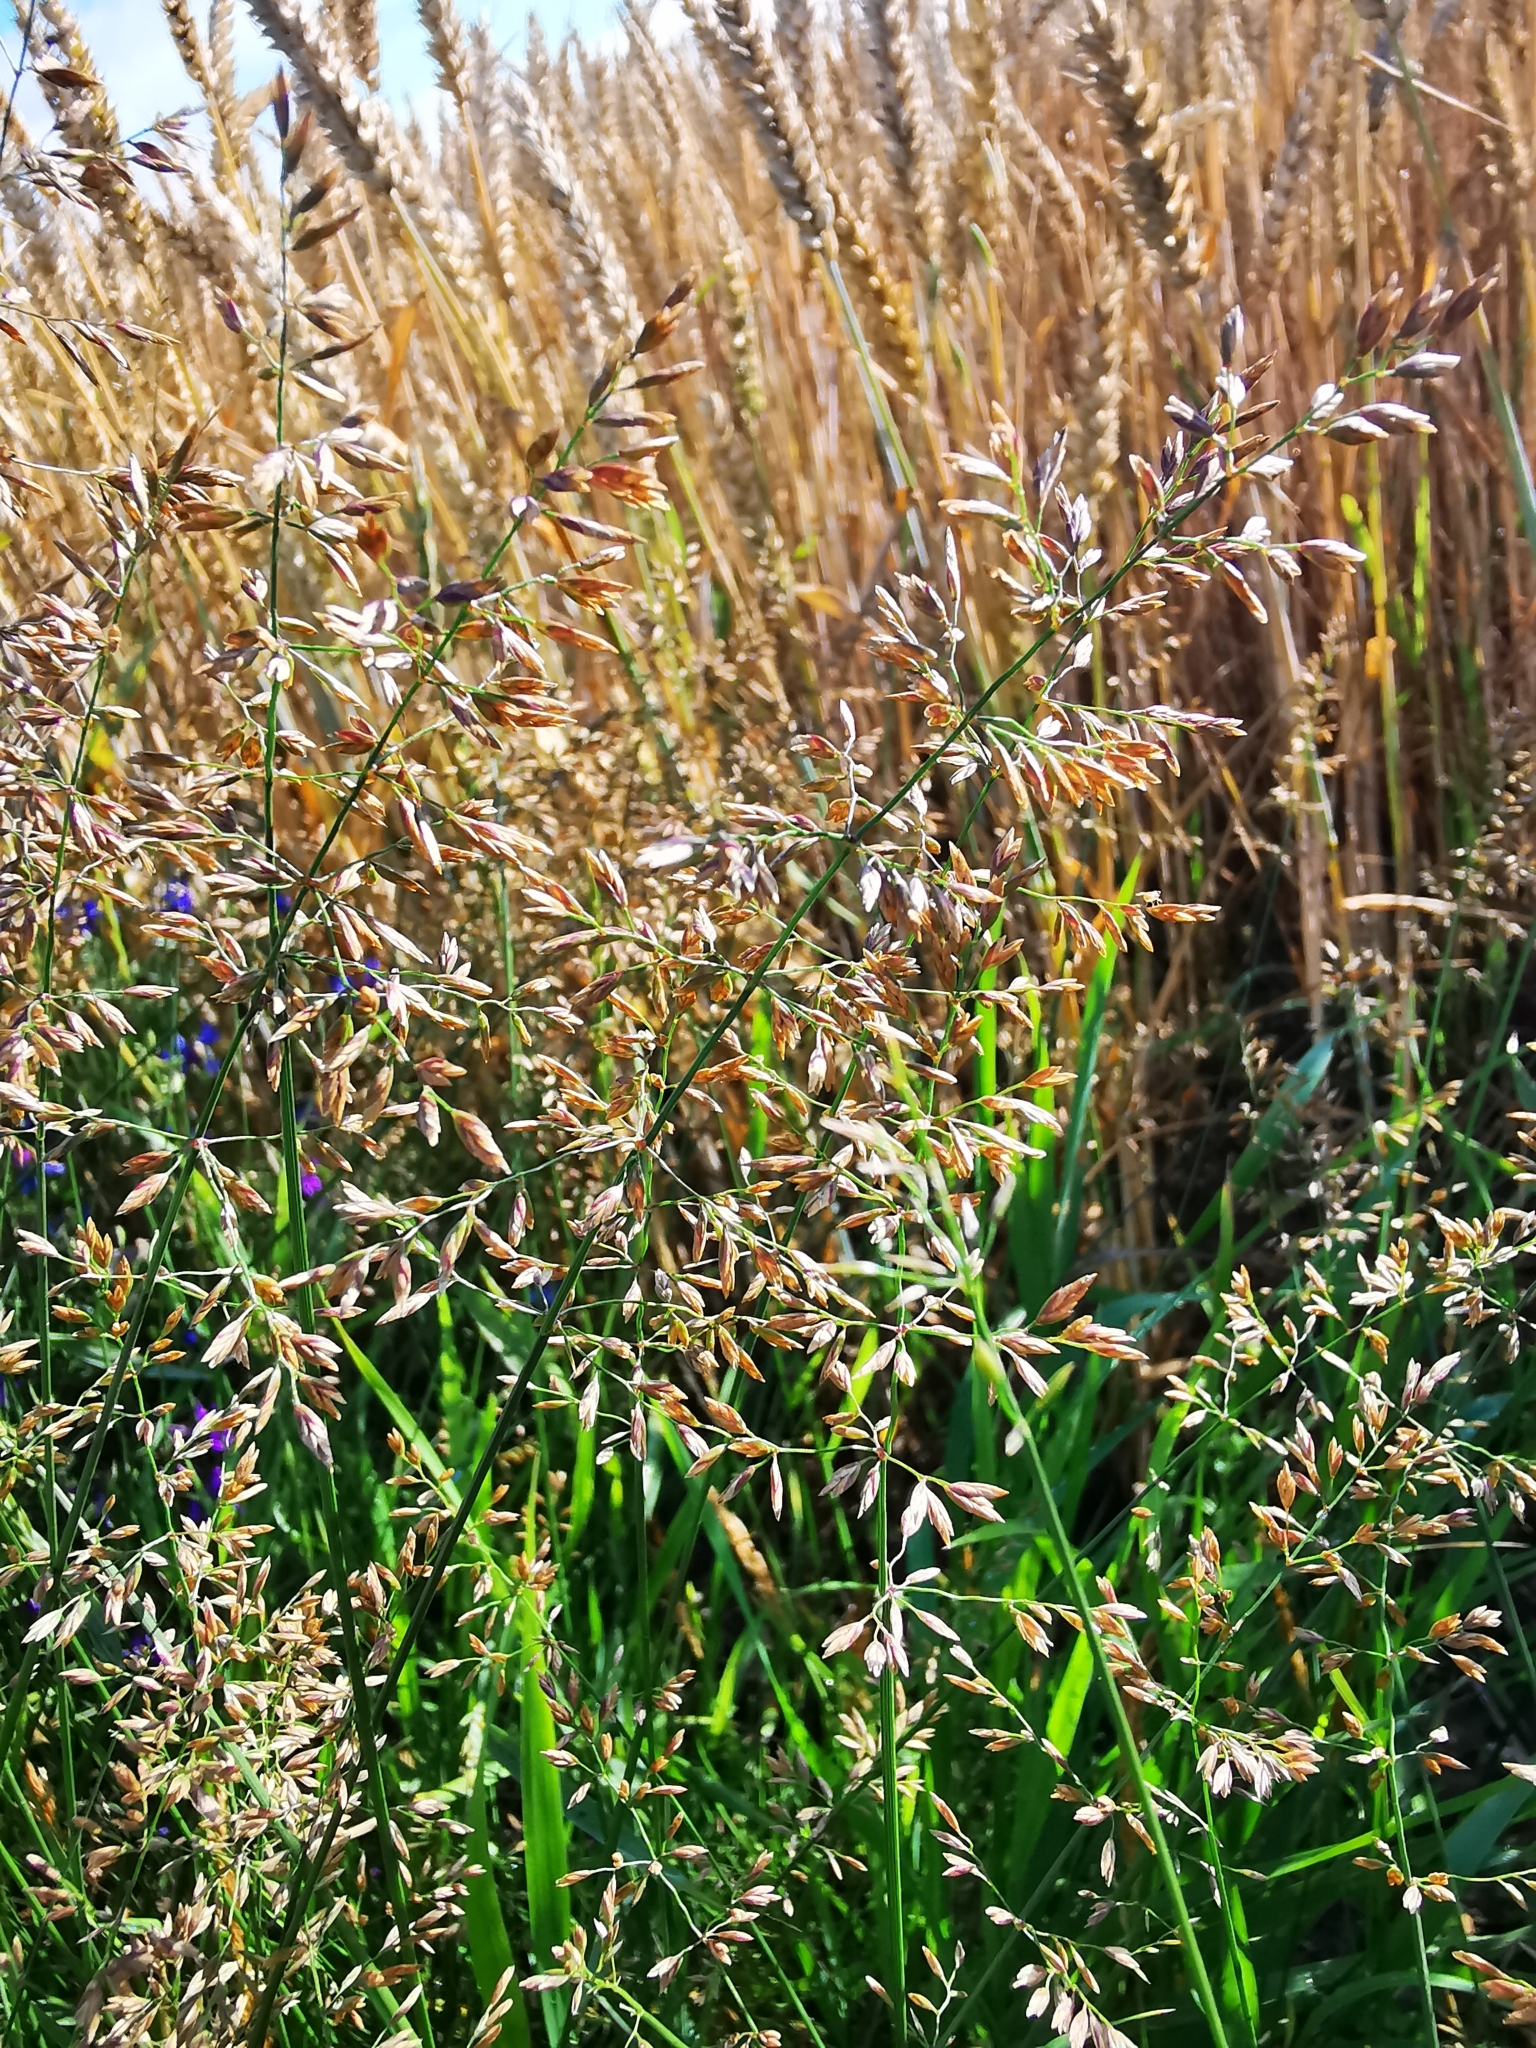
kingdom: Plantae
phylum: Tracheophyta
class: Liliopsida
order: Poales
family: Poaceae
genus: Poa
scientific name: Poa compressa
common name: Canada bluegrass
